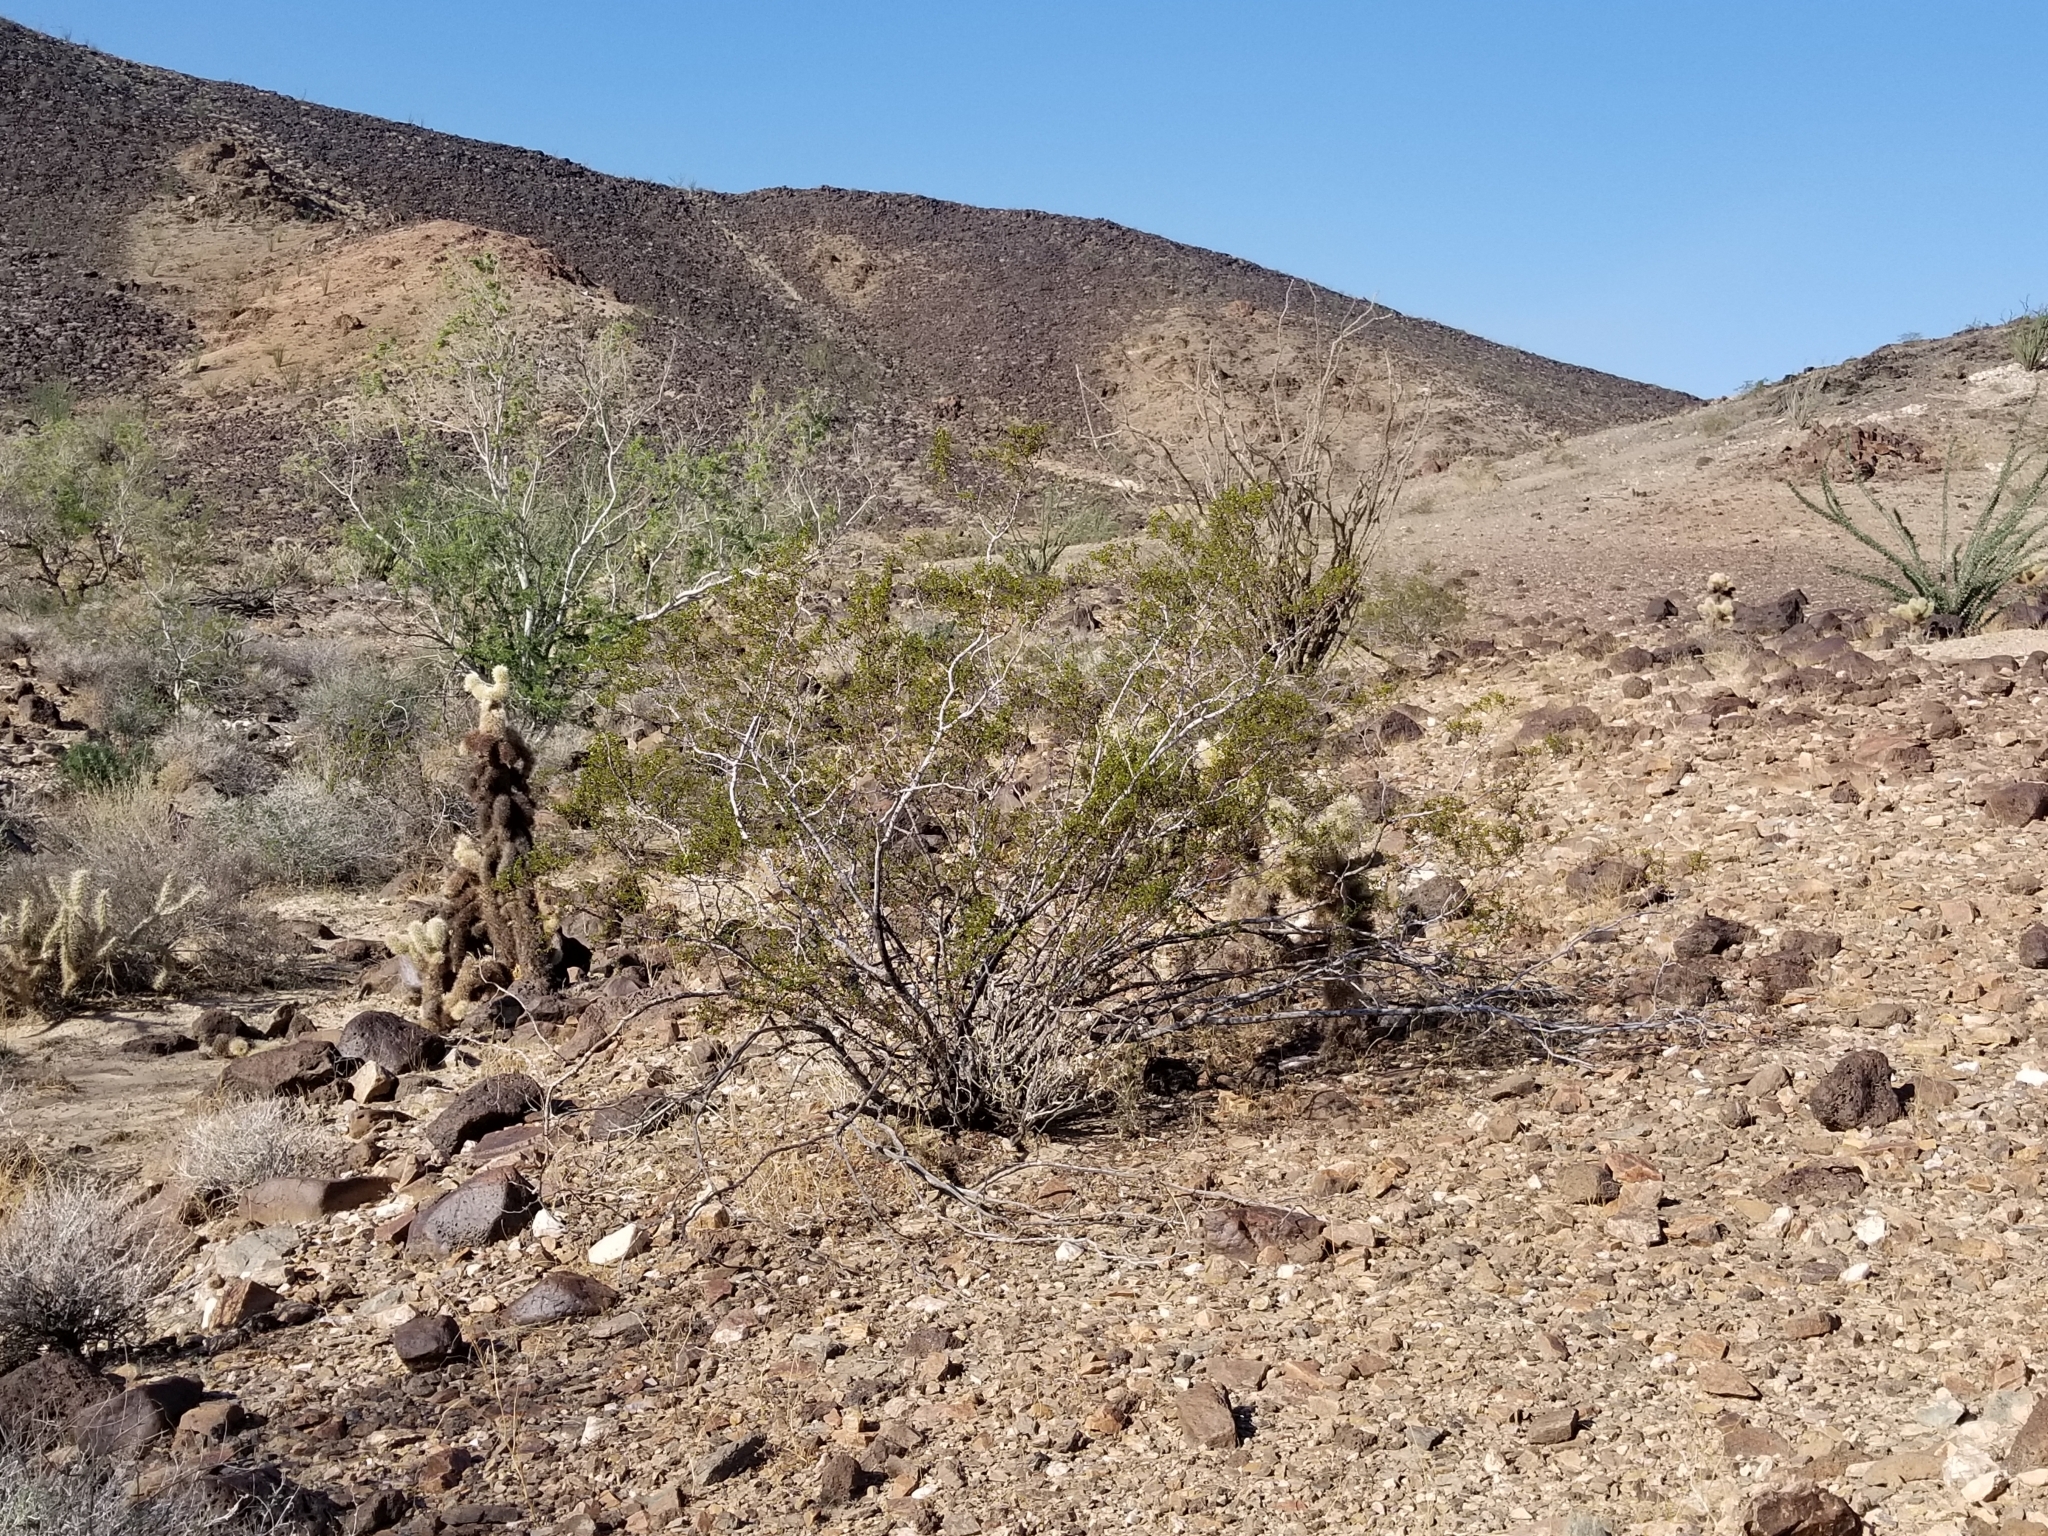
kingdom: Plantae
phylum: Tracheophyta
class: Magnoliopsida
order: Zygophyllales
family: Zygophyllaceae
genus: Larrea
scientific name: Larrea tridentata
